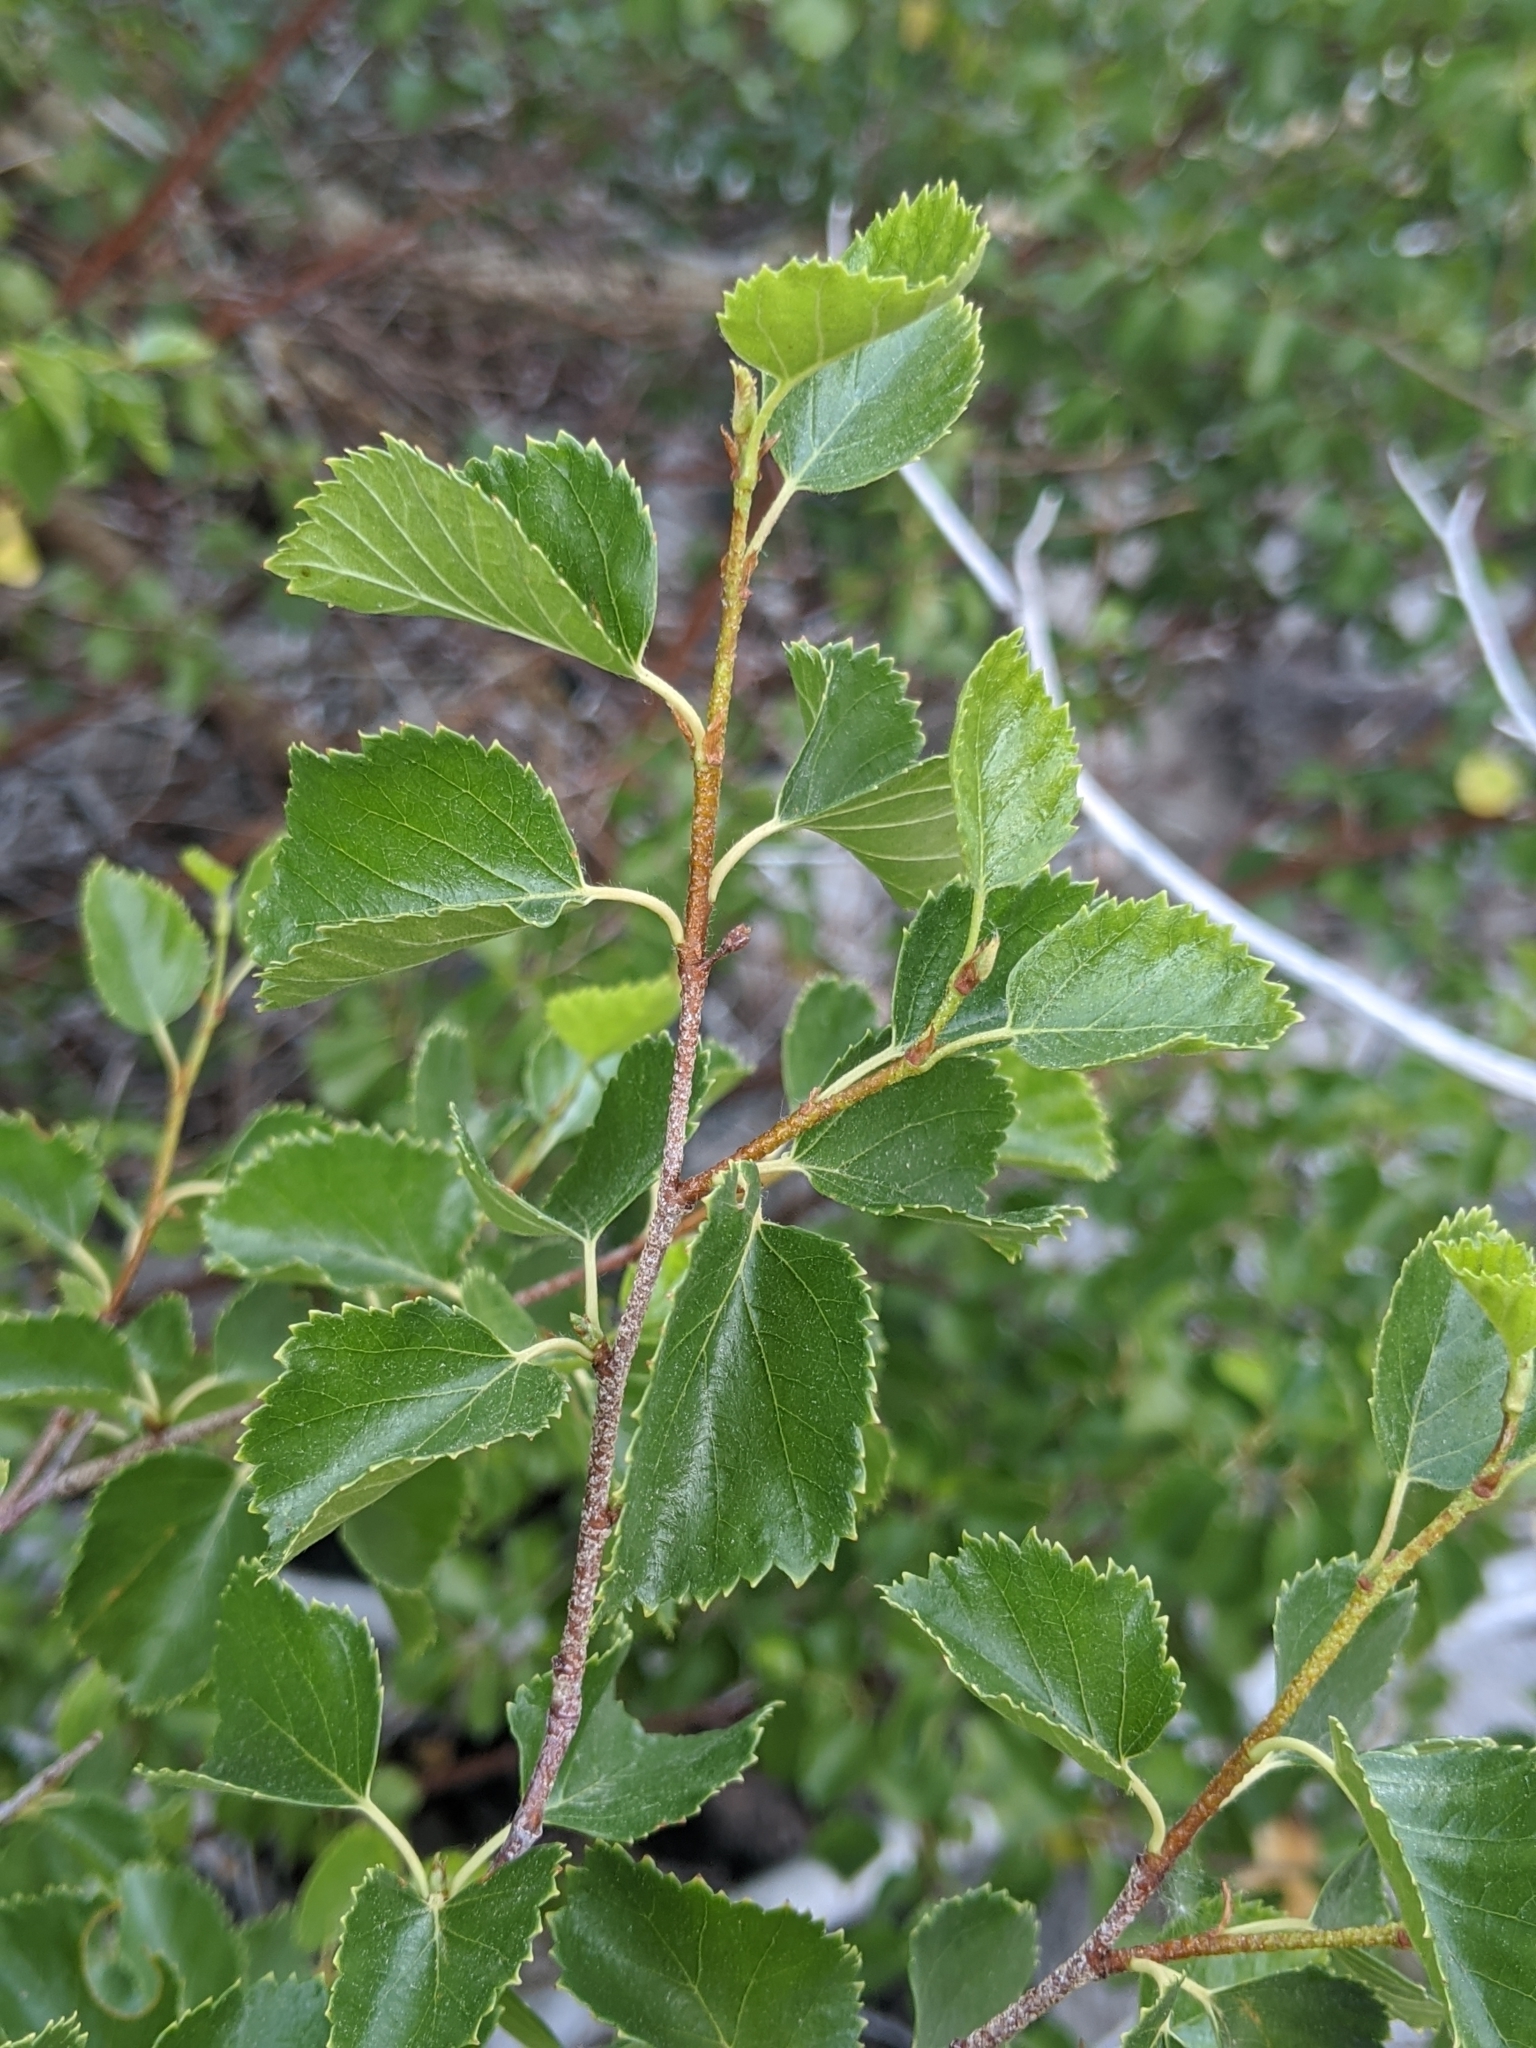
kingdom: Plantae
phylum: Tracheophyta
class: Magnoliopsida
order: Fagales
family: Betulaceae
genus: Betula
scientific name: Betula occidentalis
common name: River birch
